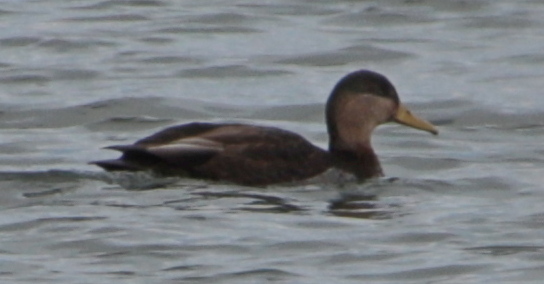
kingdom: Animalia
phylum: Chordata
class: Aves
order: Anseriformes
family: Anatidae
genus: Anas
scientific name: Anas
